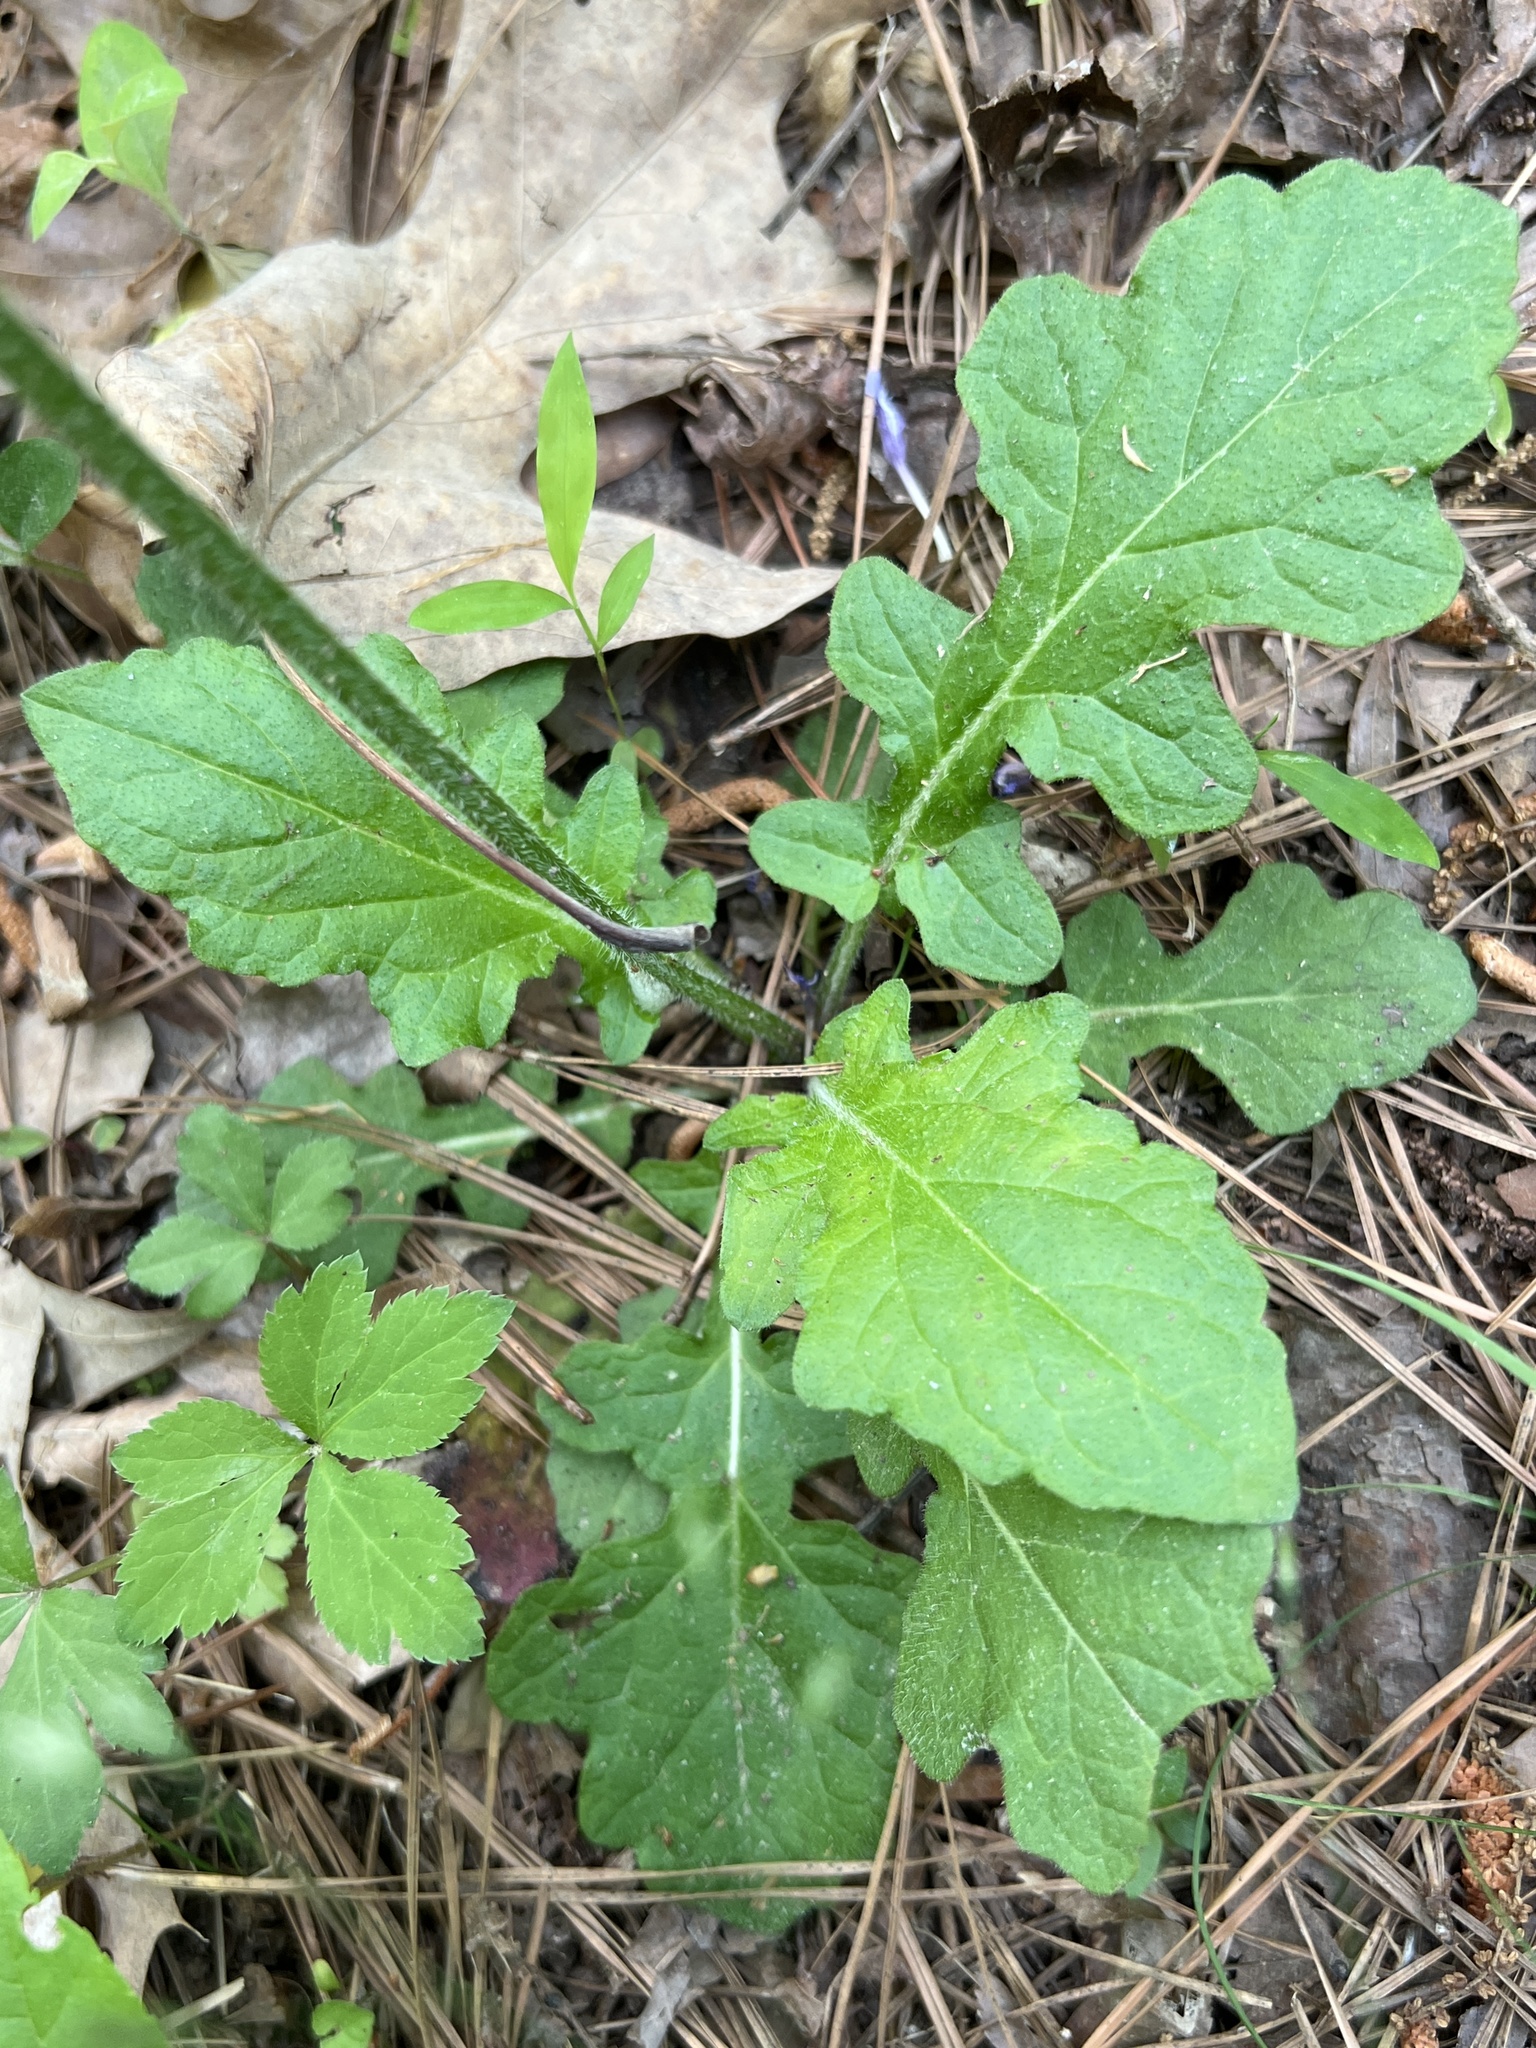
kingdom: Plantae
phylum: Tracheophyta
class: Magnoliopsida
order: Lamiales
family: Lamiaceae
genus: Salvia
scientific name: Salvia lyrata
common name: Cancerweed
